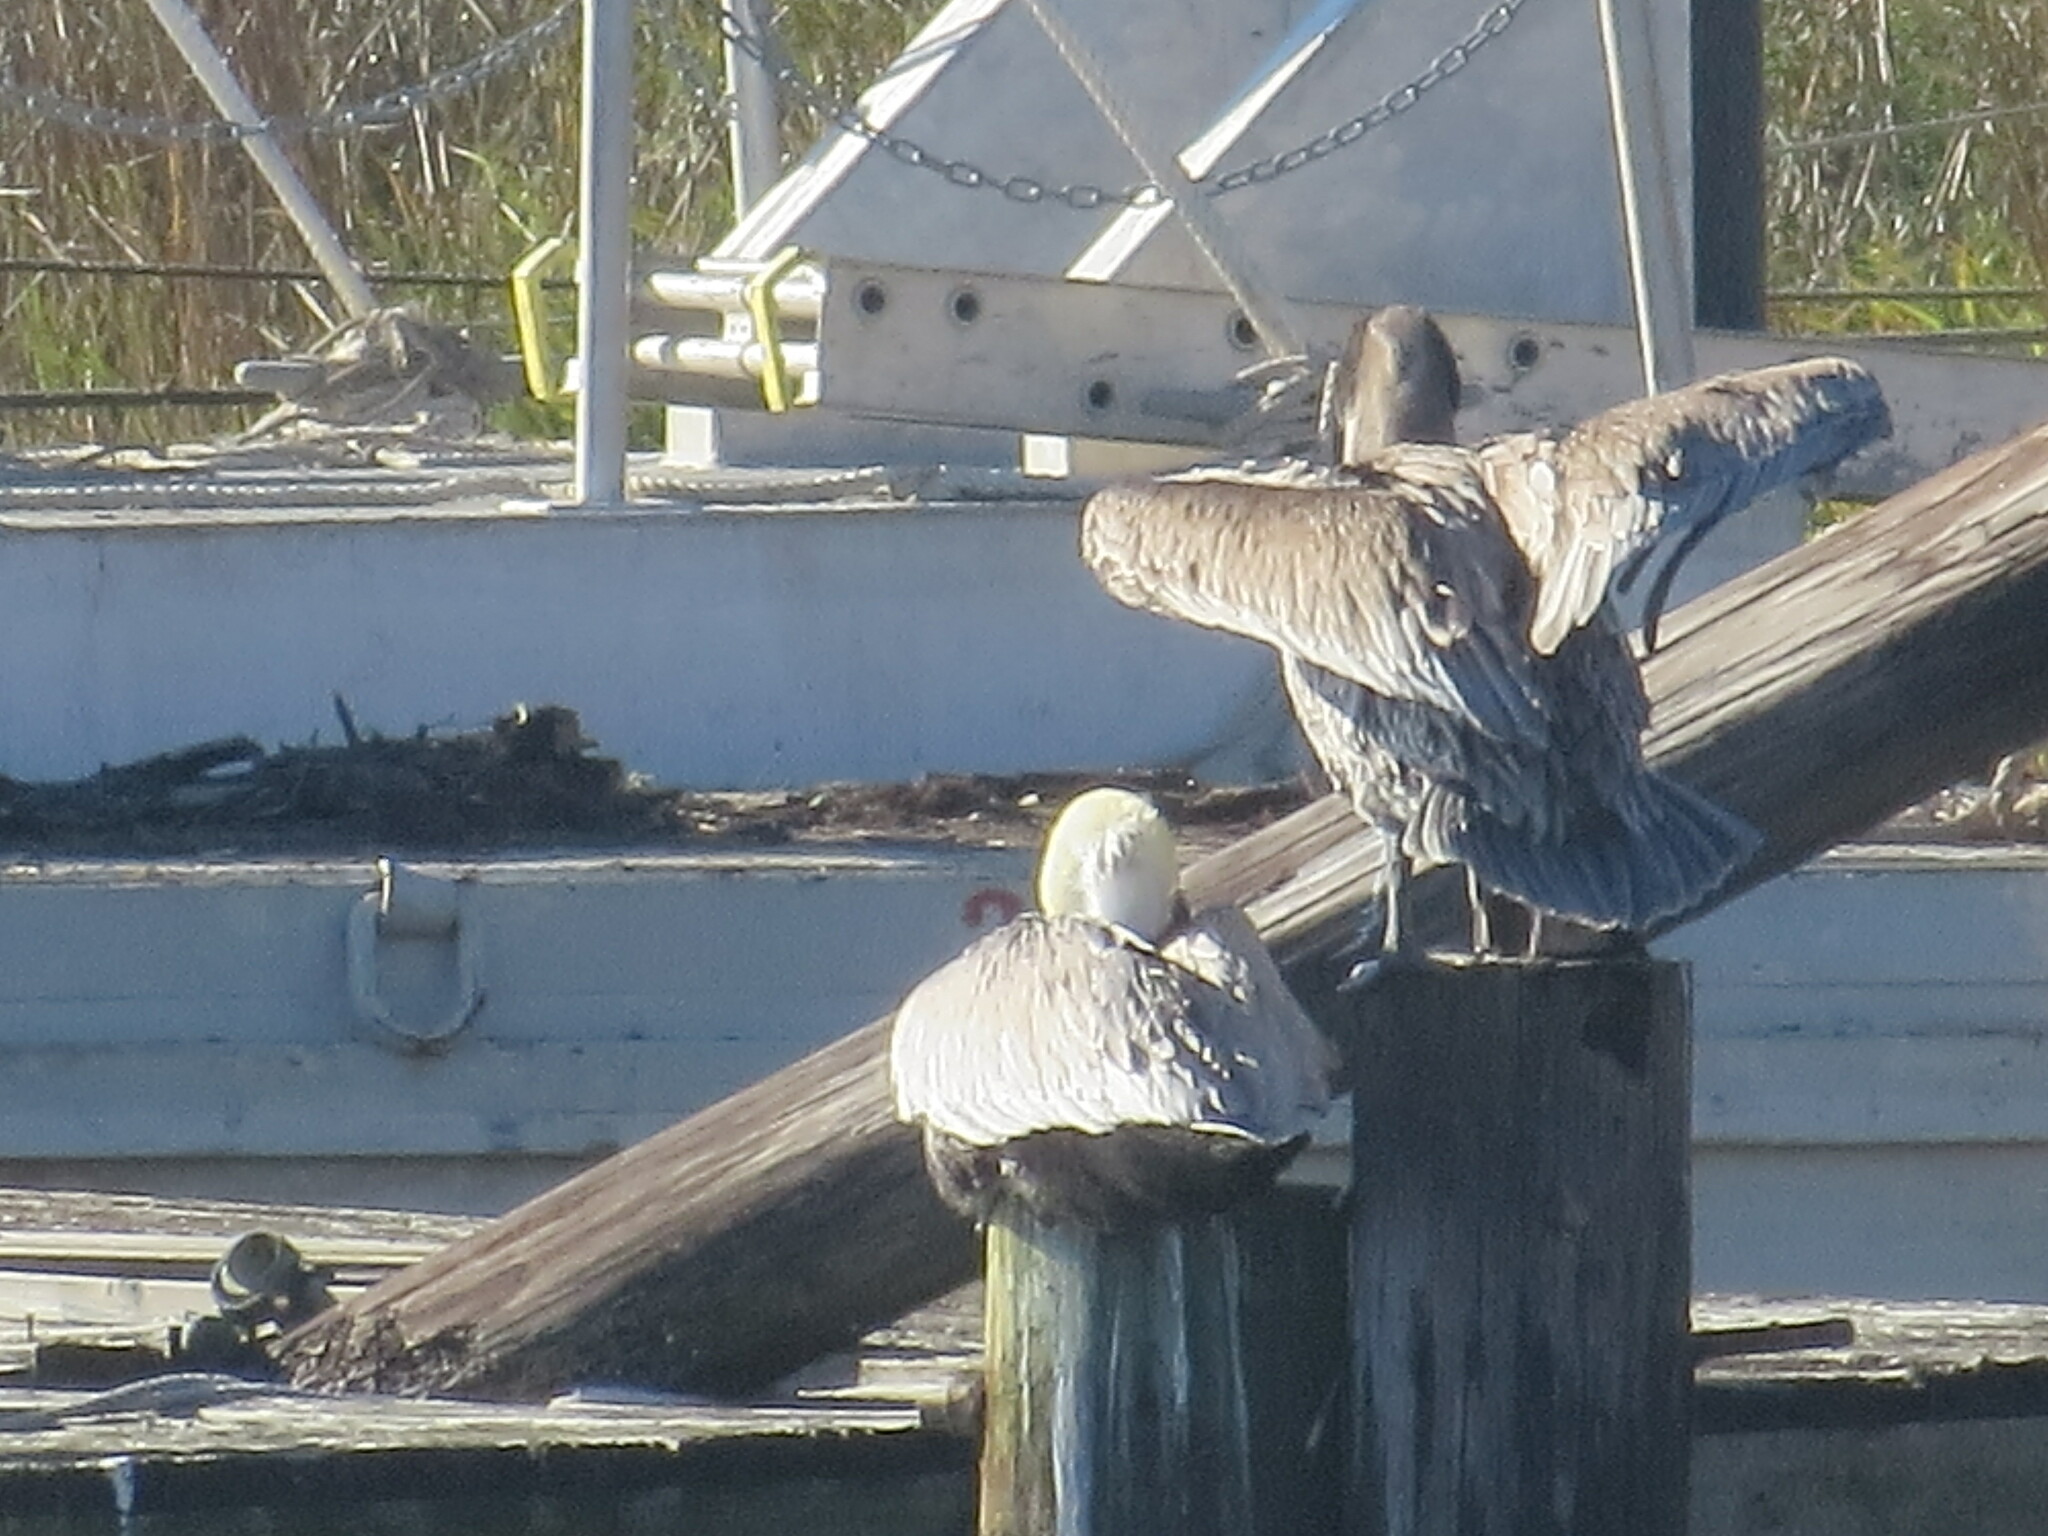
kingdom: Animalia
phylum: Chordata
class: Aves
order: Pelecaniformes
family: Pelecanidae
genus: Pelecanus
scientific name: Pelecanus occidentalis
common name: Brown pelican
